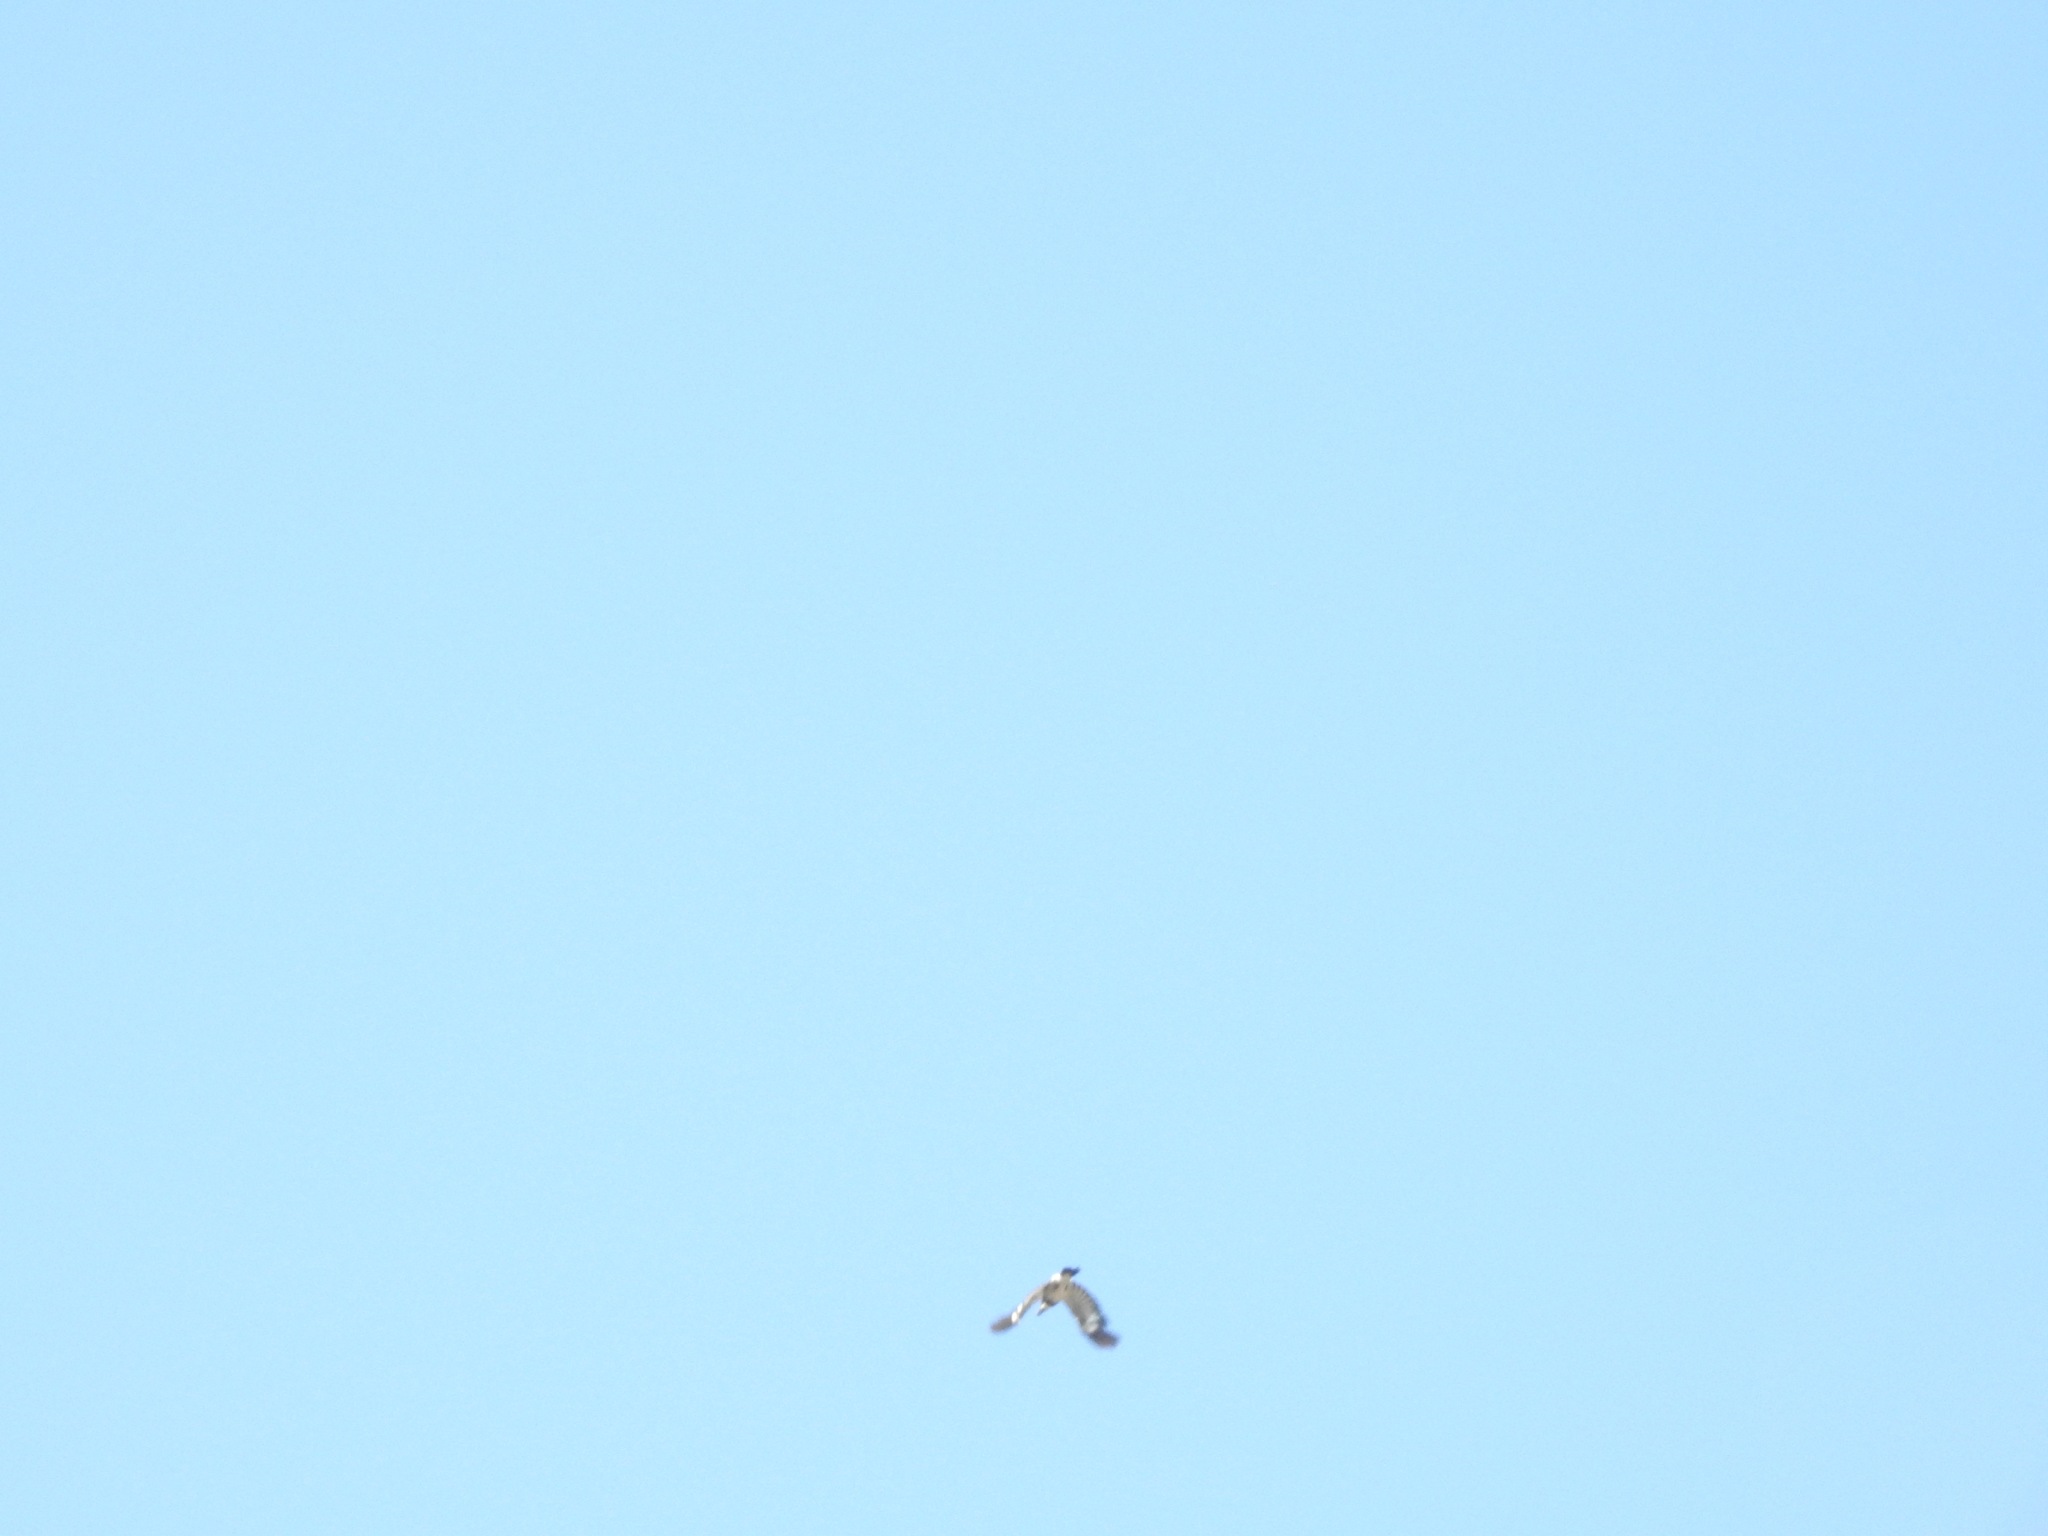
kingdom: Animalia
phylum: Chordata
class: Aves
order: Piciformes
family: Picidae
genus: Melanerpes
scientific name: Melanerpes formicivorus
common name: Acorn woodpecker
